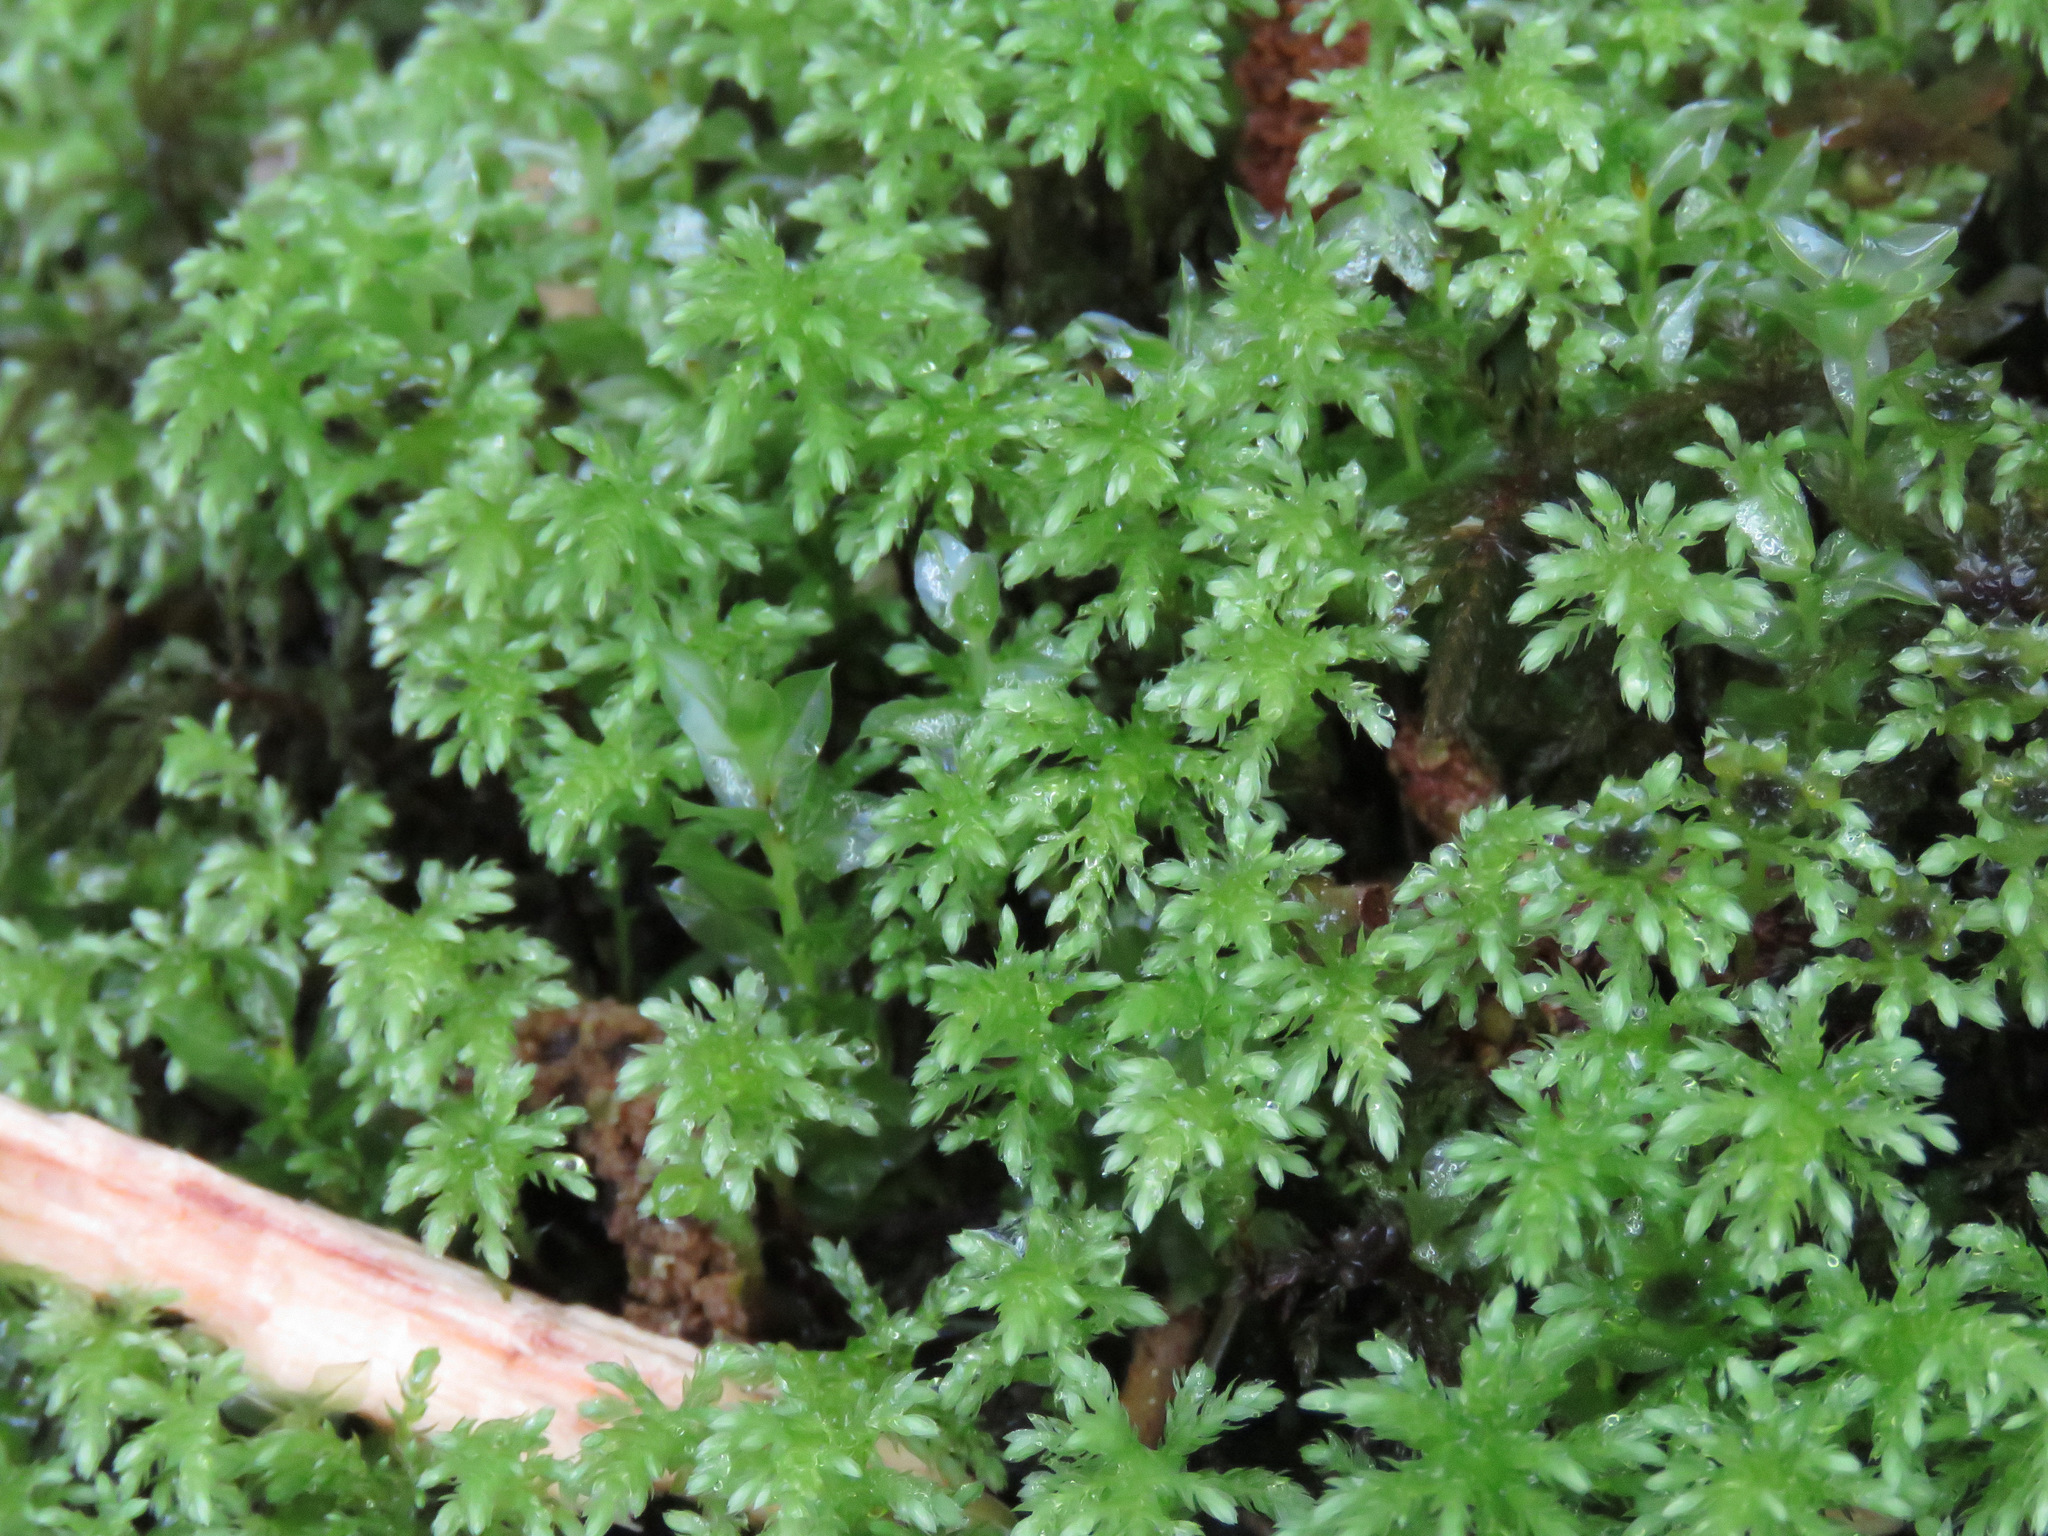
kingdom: Plantae
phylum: Bryophyta
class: Bryopsida
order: Bryales
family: Mniaceae
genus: Leucolepis
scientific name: Leucolepis acanthoneura
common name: Leucolepis umbrella moss
